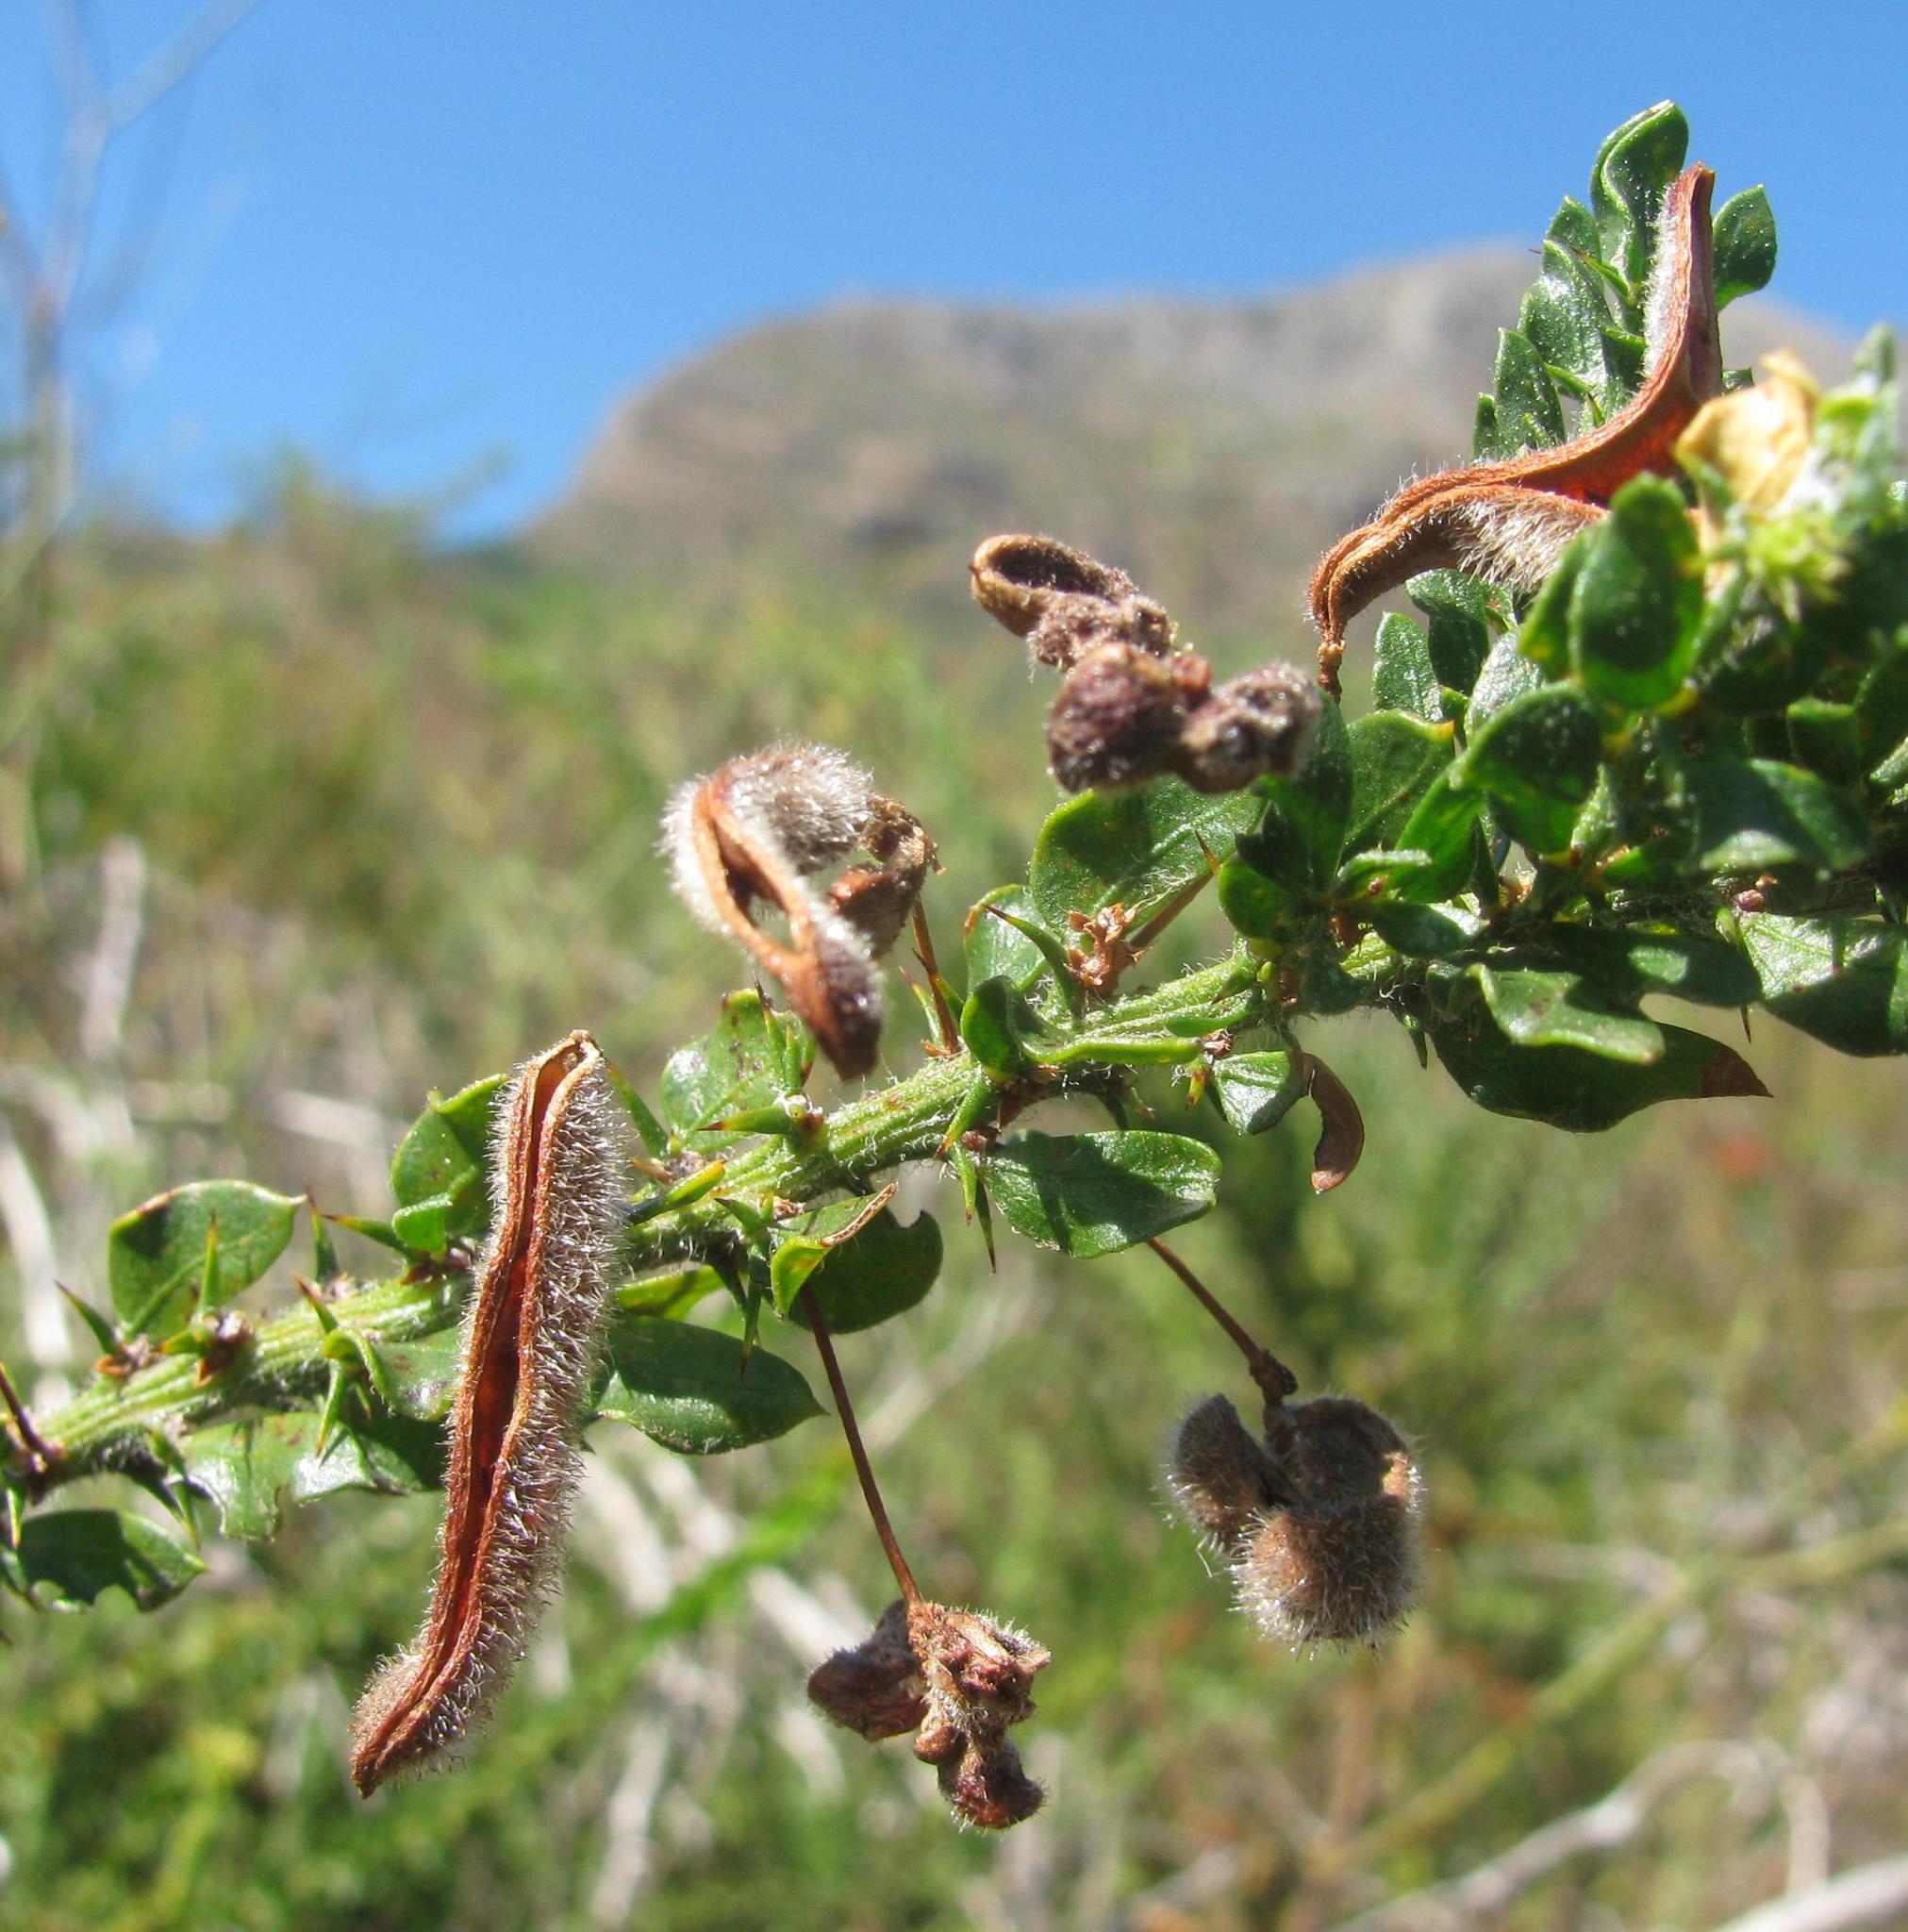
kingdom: Plantae
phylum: Tracheophyta
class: Magnoliopsida
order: Fabales
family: Fabaceae
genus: Acacia
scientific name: Acacia paradoxa
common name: Paradox acacia
